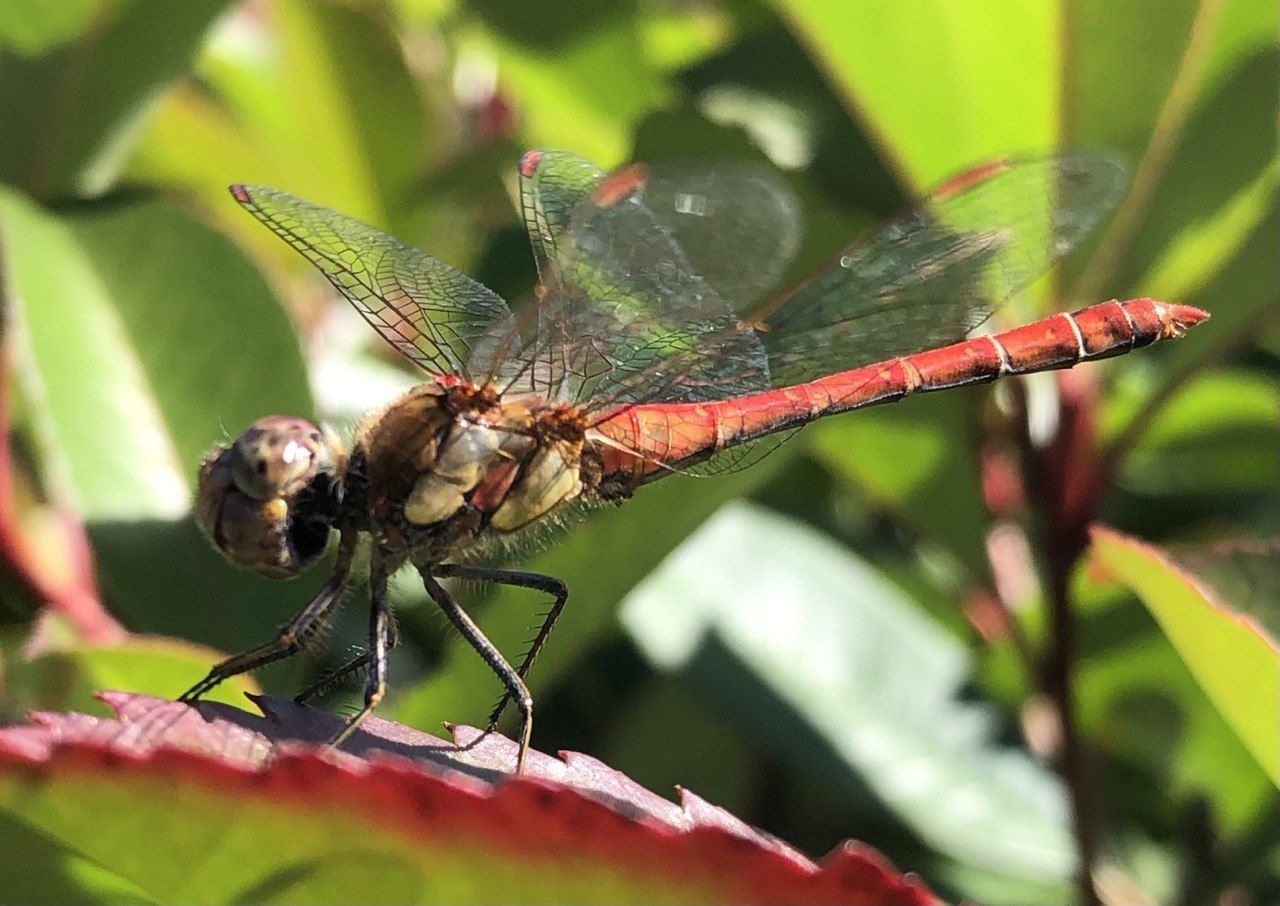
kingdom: Animalia
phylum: Arthropoda
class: Insecta
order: Odonata
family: Libellulidae
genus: Sympetrum
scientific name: Sympetrum striolatum
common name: Common darter
